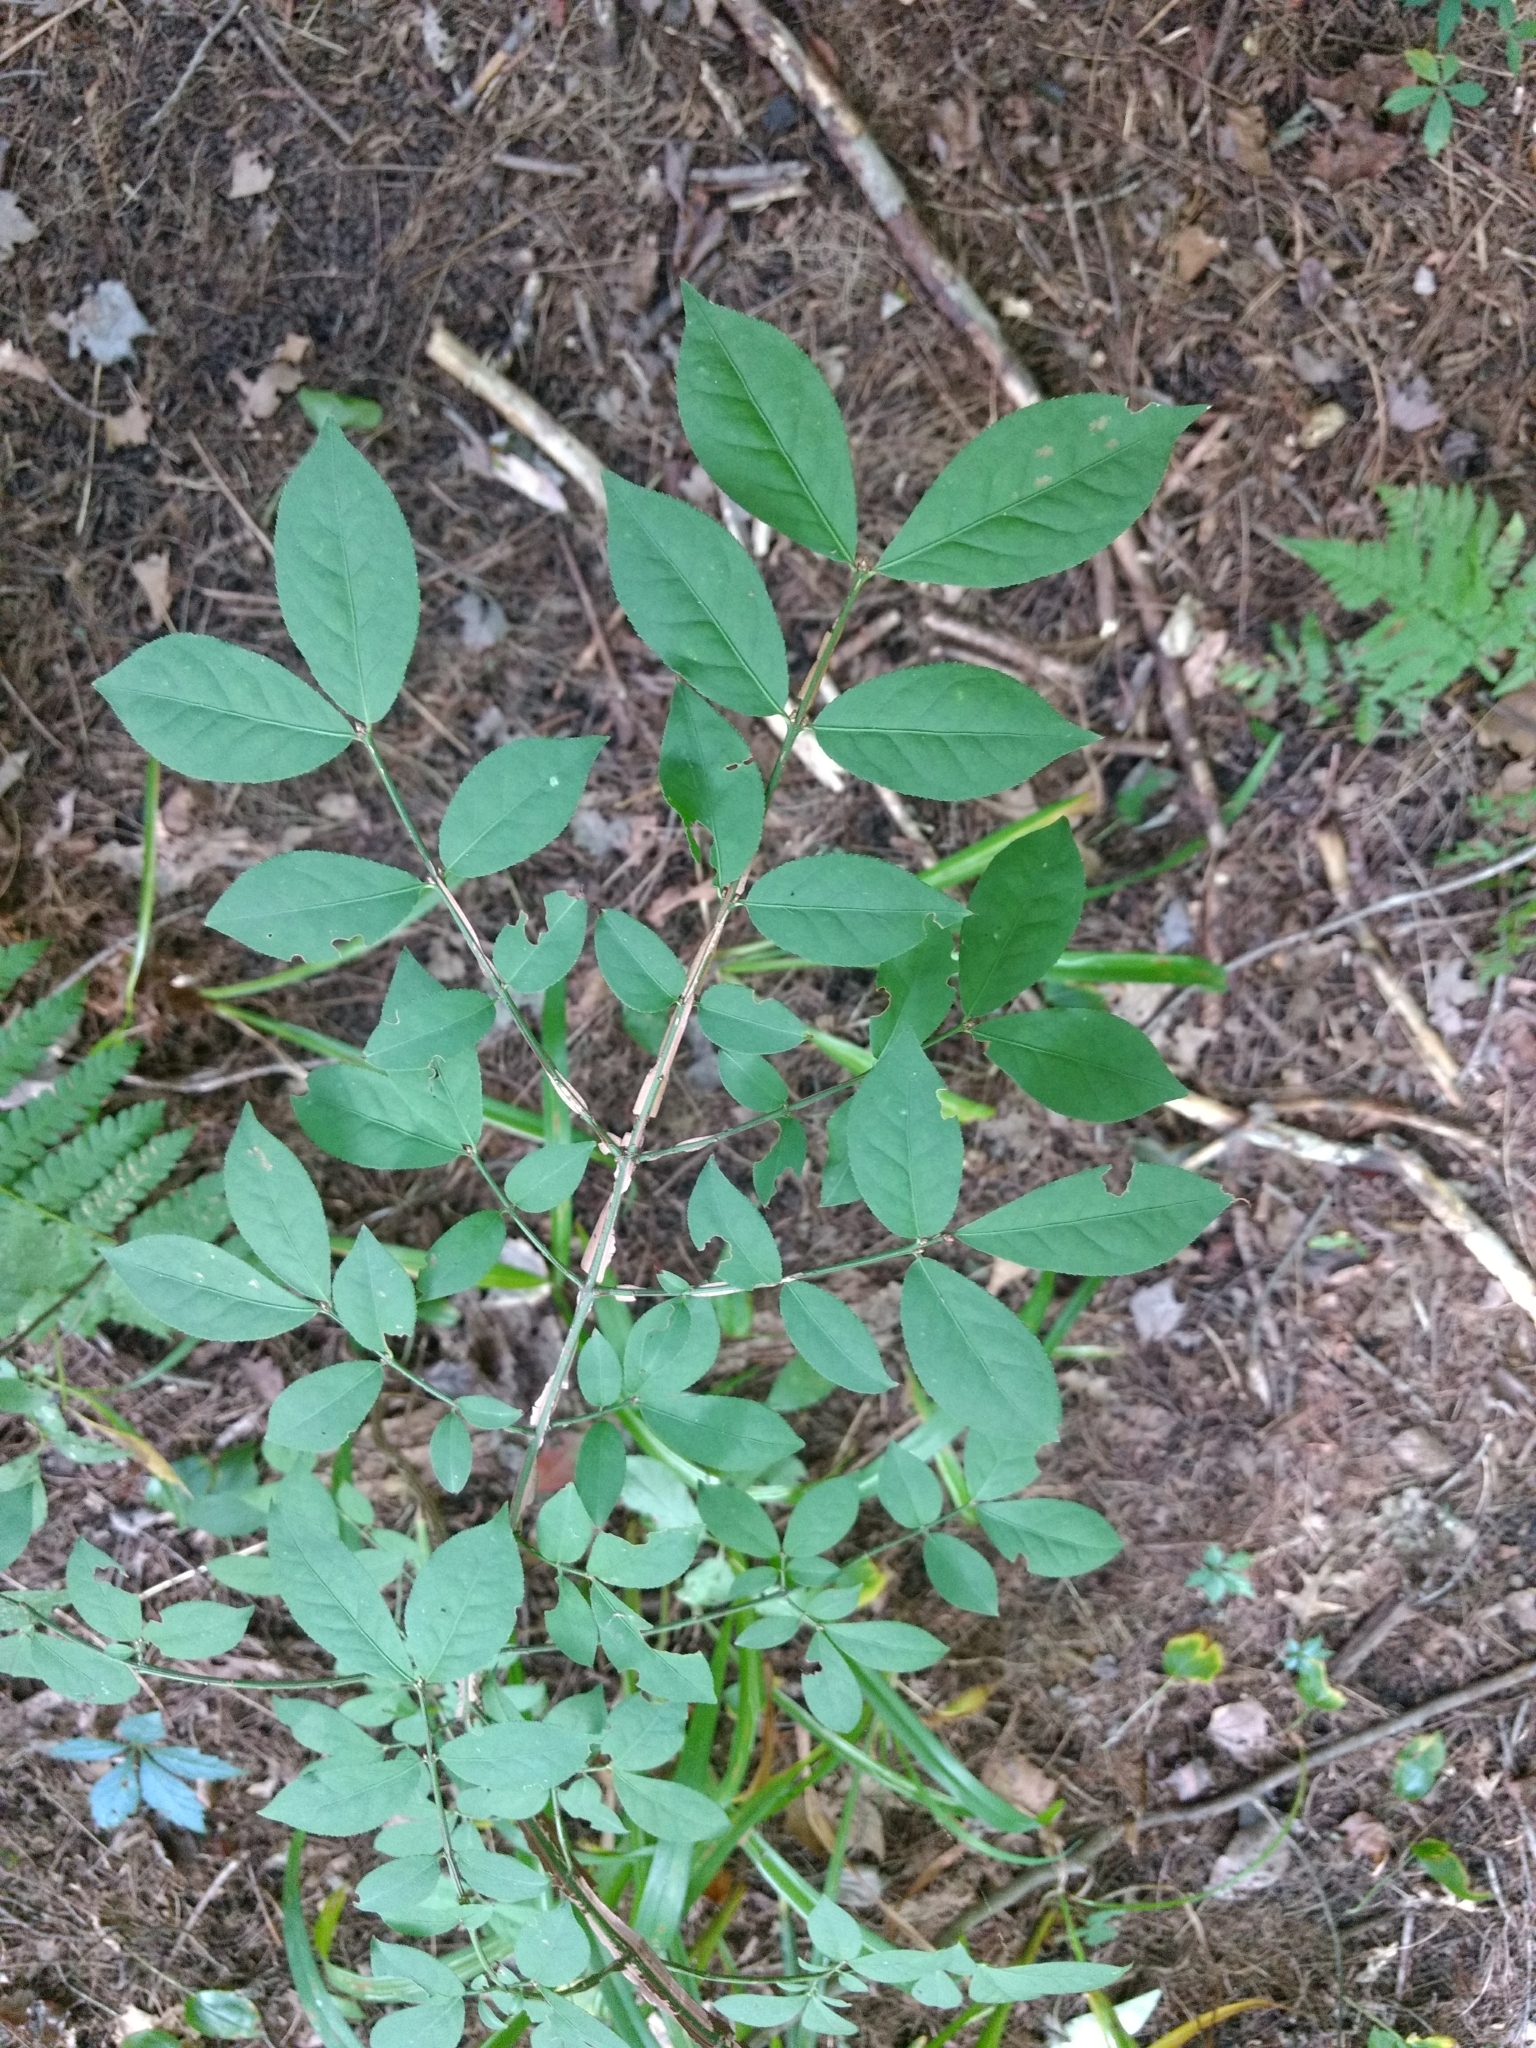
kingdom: Plantae
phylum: Tracheophyta
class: Magnoliopsida
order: Celastrales
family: Celastraceae
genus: Euonymus
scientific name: Euonymus alatus
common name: Winged euonymus
